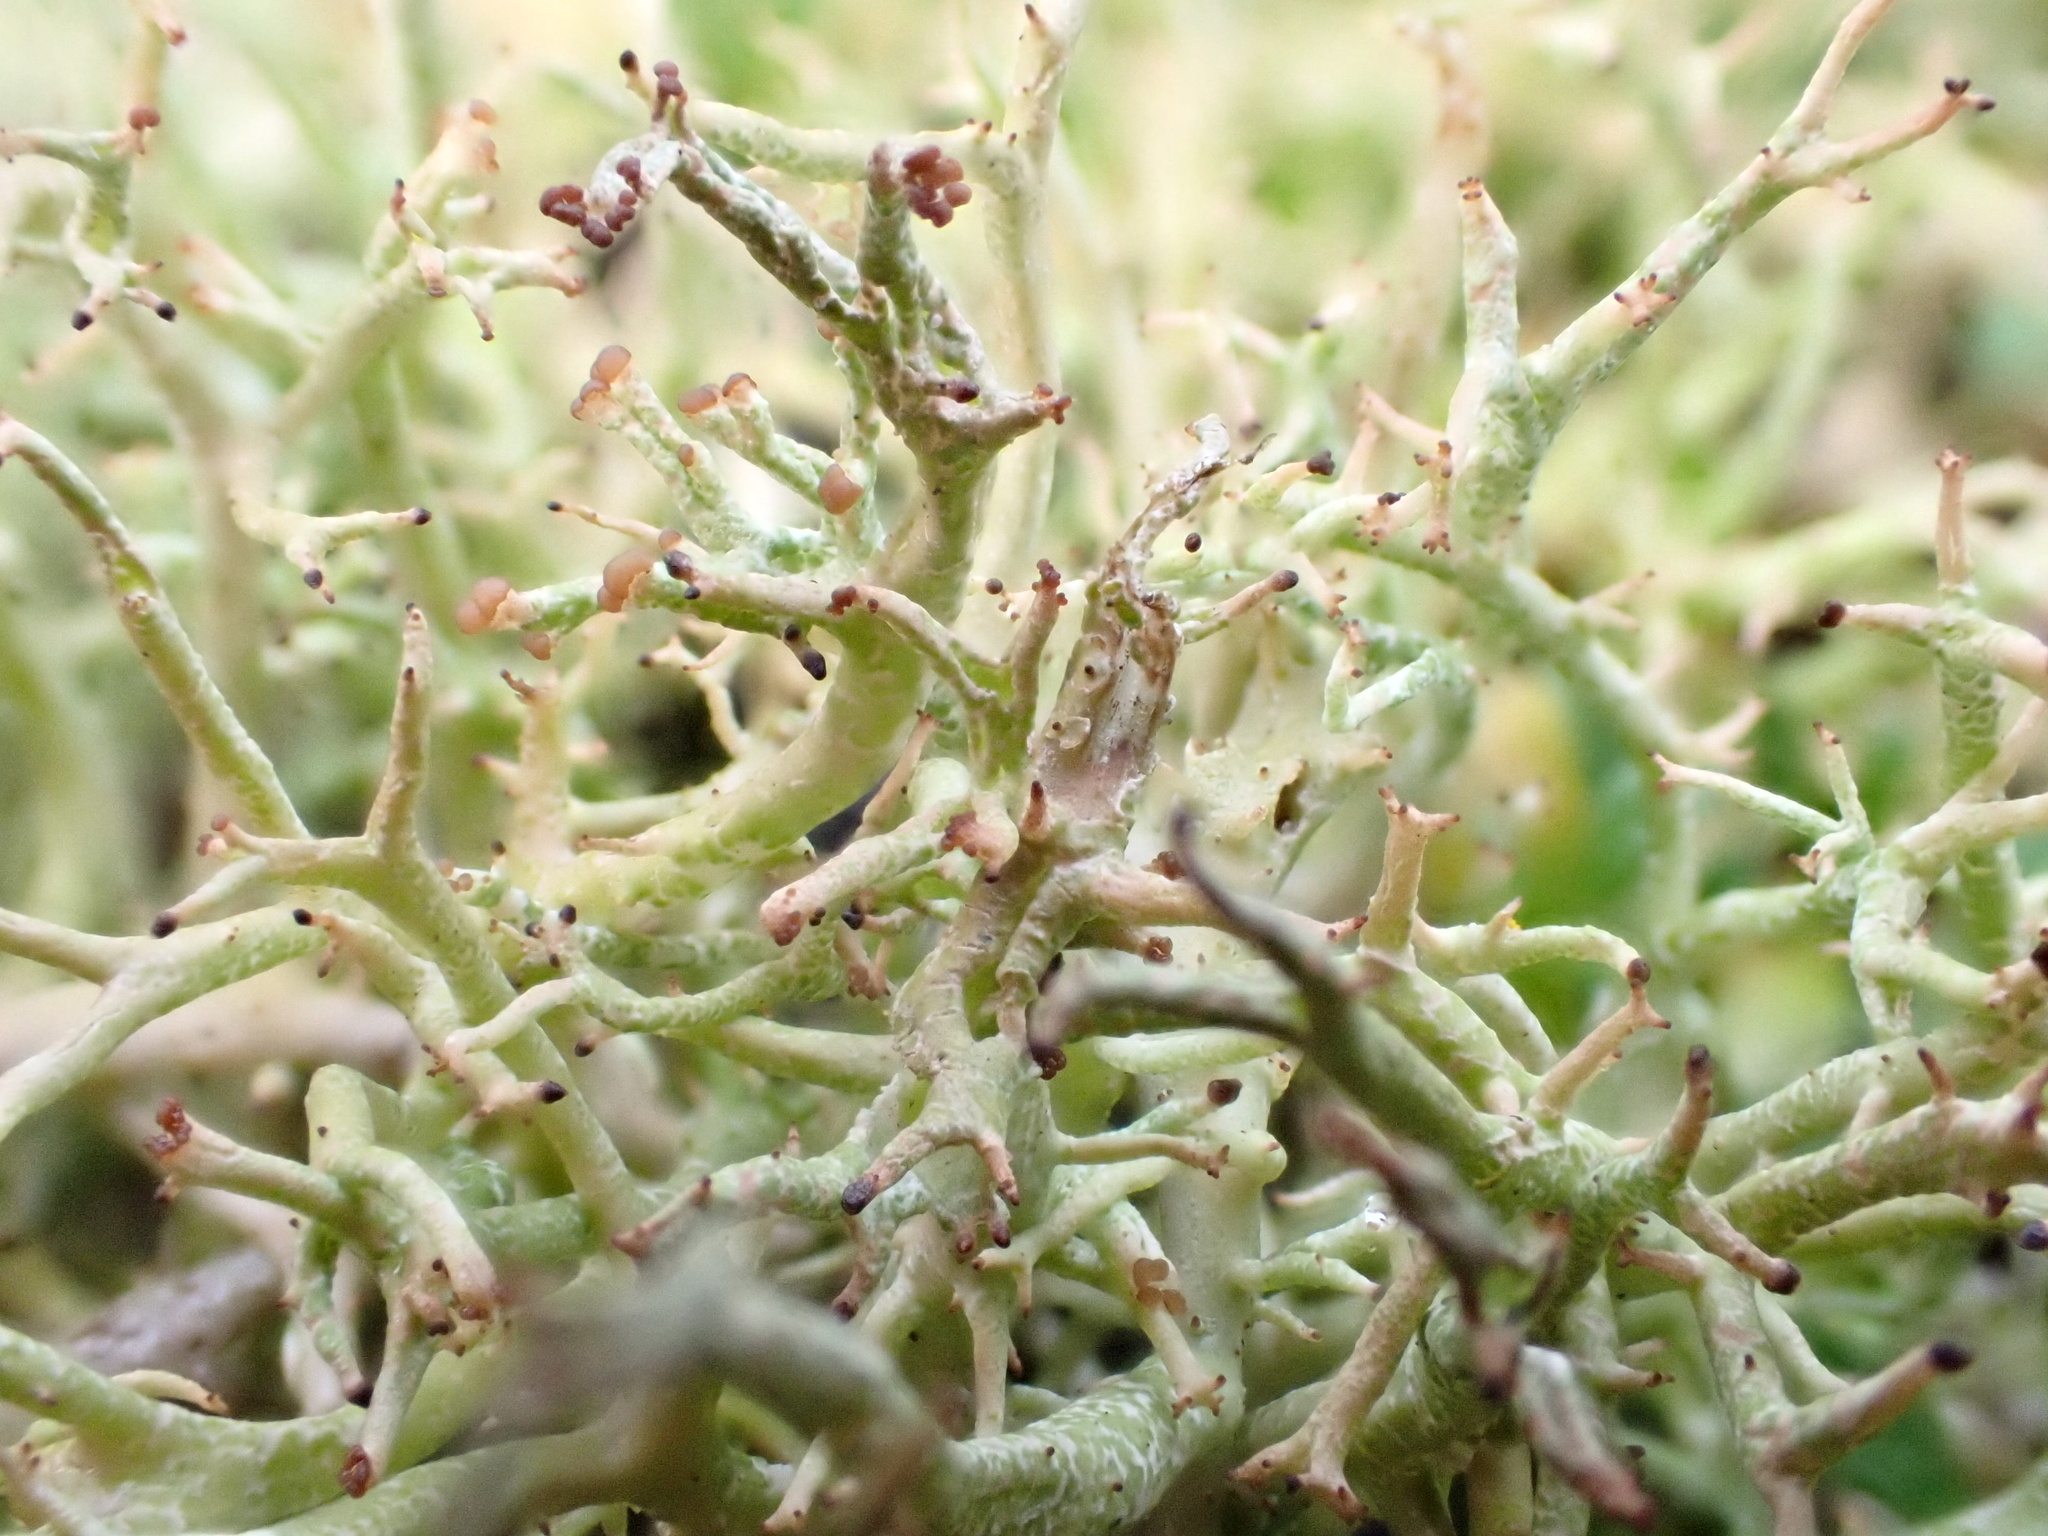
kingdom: Fungi
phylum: Ascomycota
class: Lecanoromycetes
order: Lecanorales
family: Cladoniaceae
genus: Cladonia
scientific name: Cladonia furcata
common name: Many-forked cladonia
